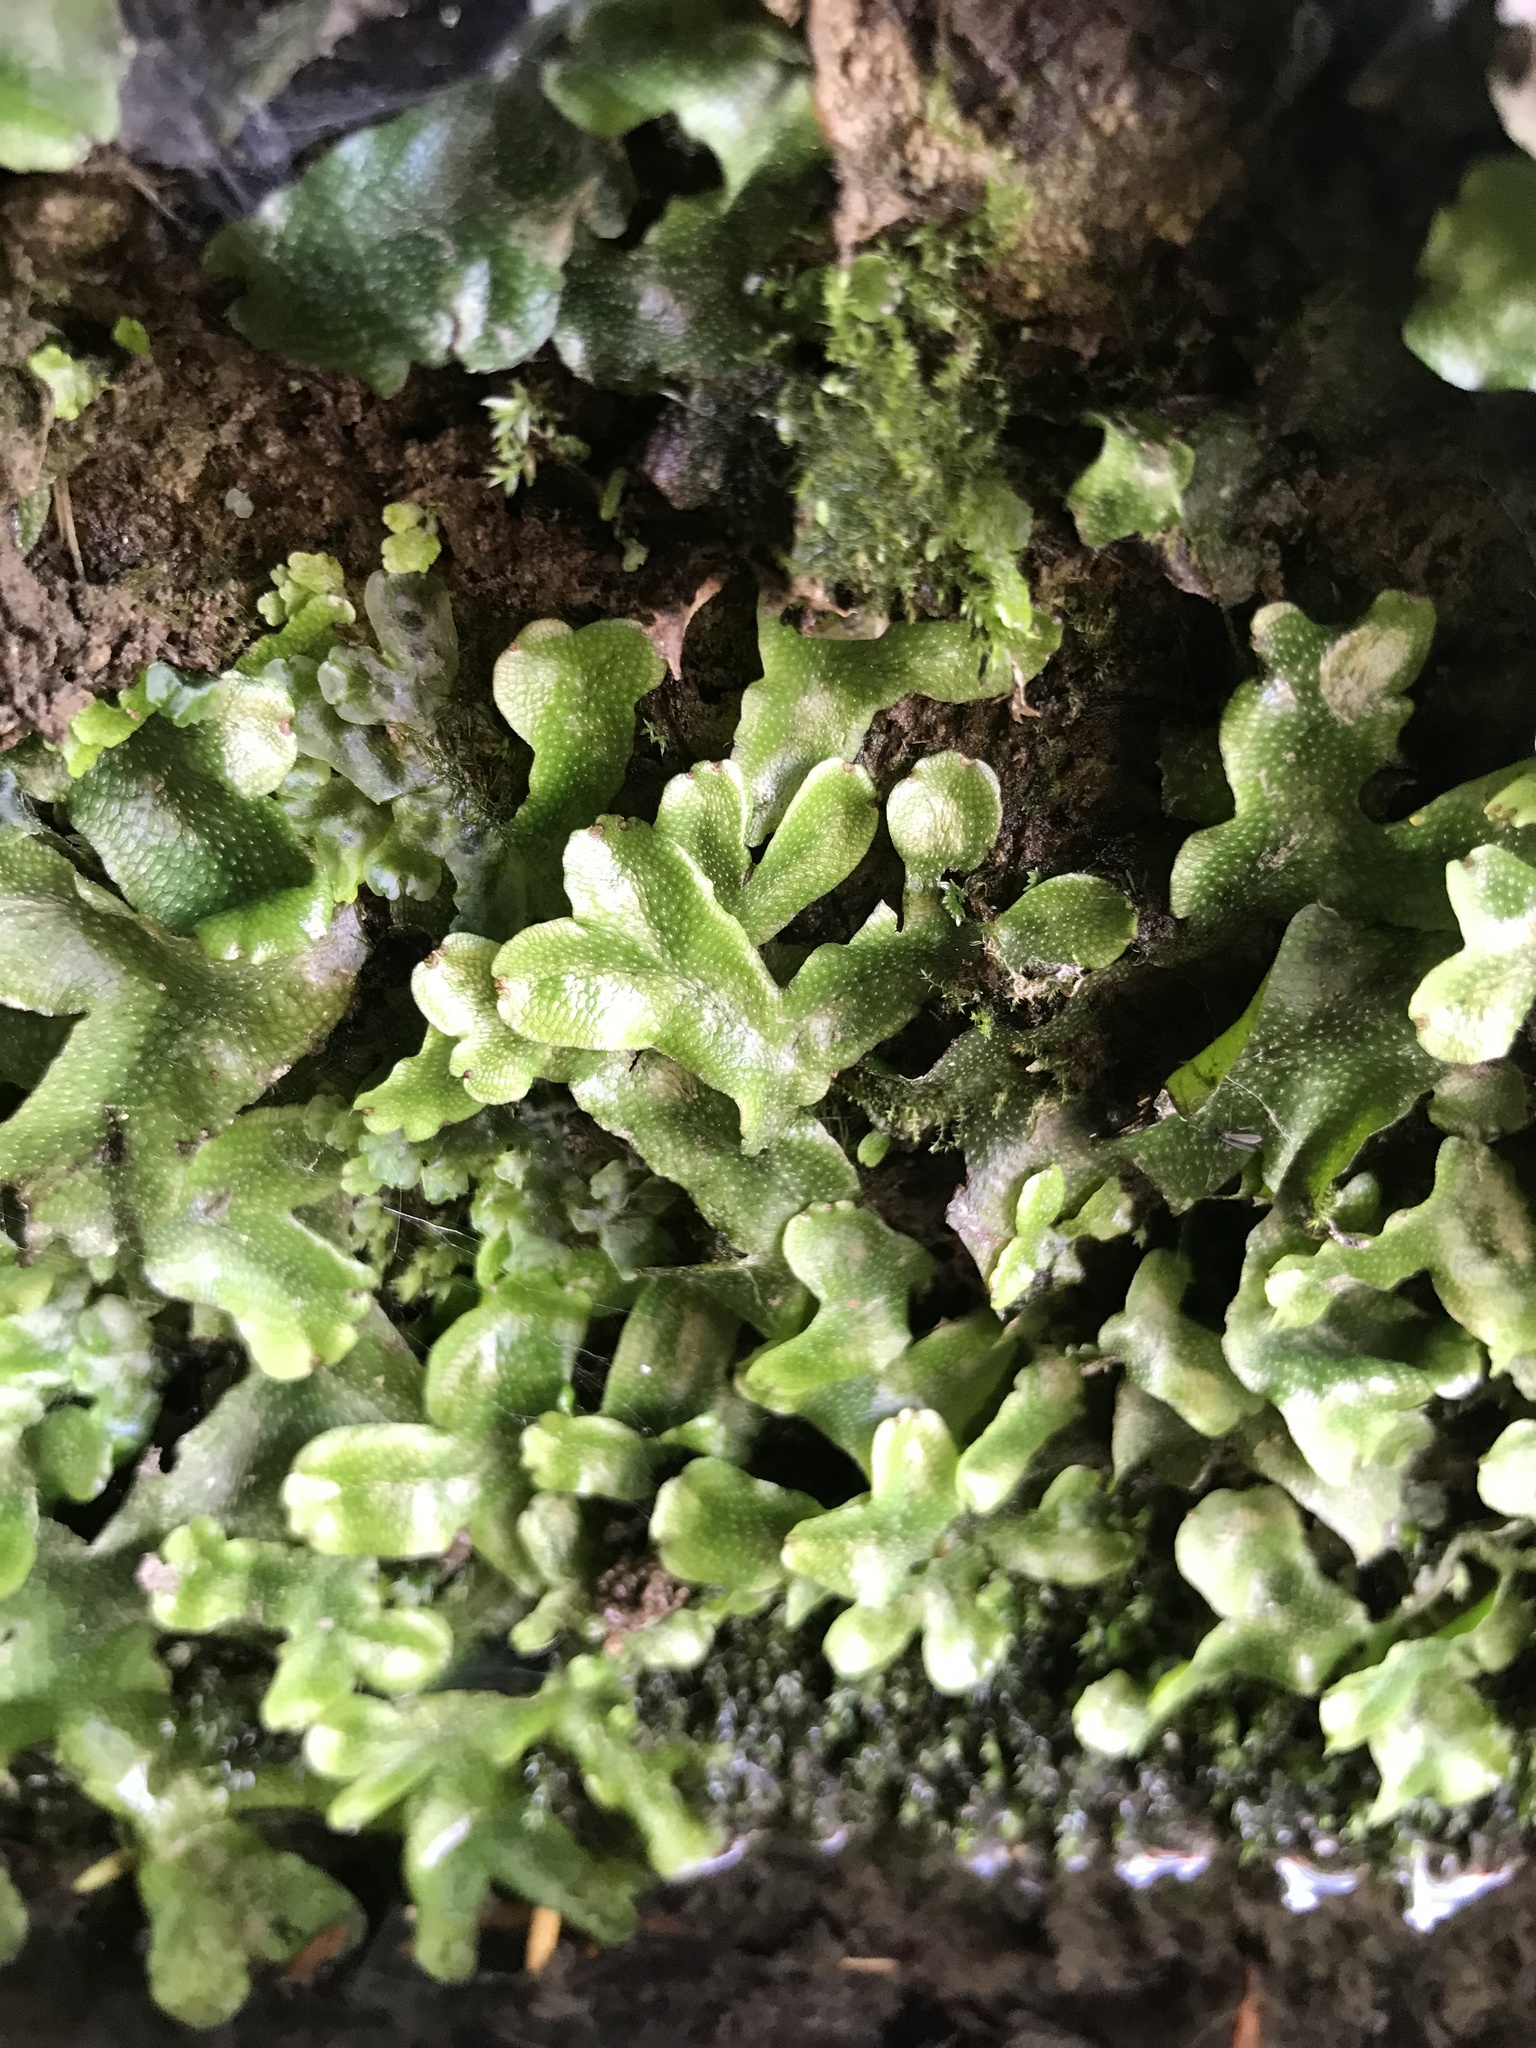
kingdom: Plantae
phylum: Marchantiophyta
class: Marchantiopsida
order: Marchantiales
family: Conocephalaceae
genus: Conocephalum
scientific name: Conocephalum conicum
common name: Great scented liverwort
